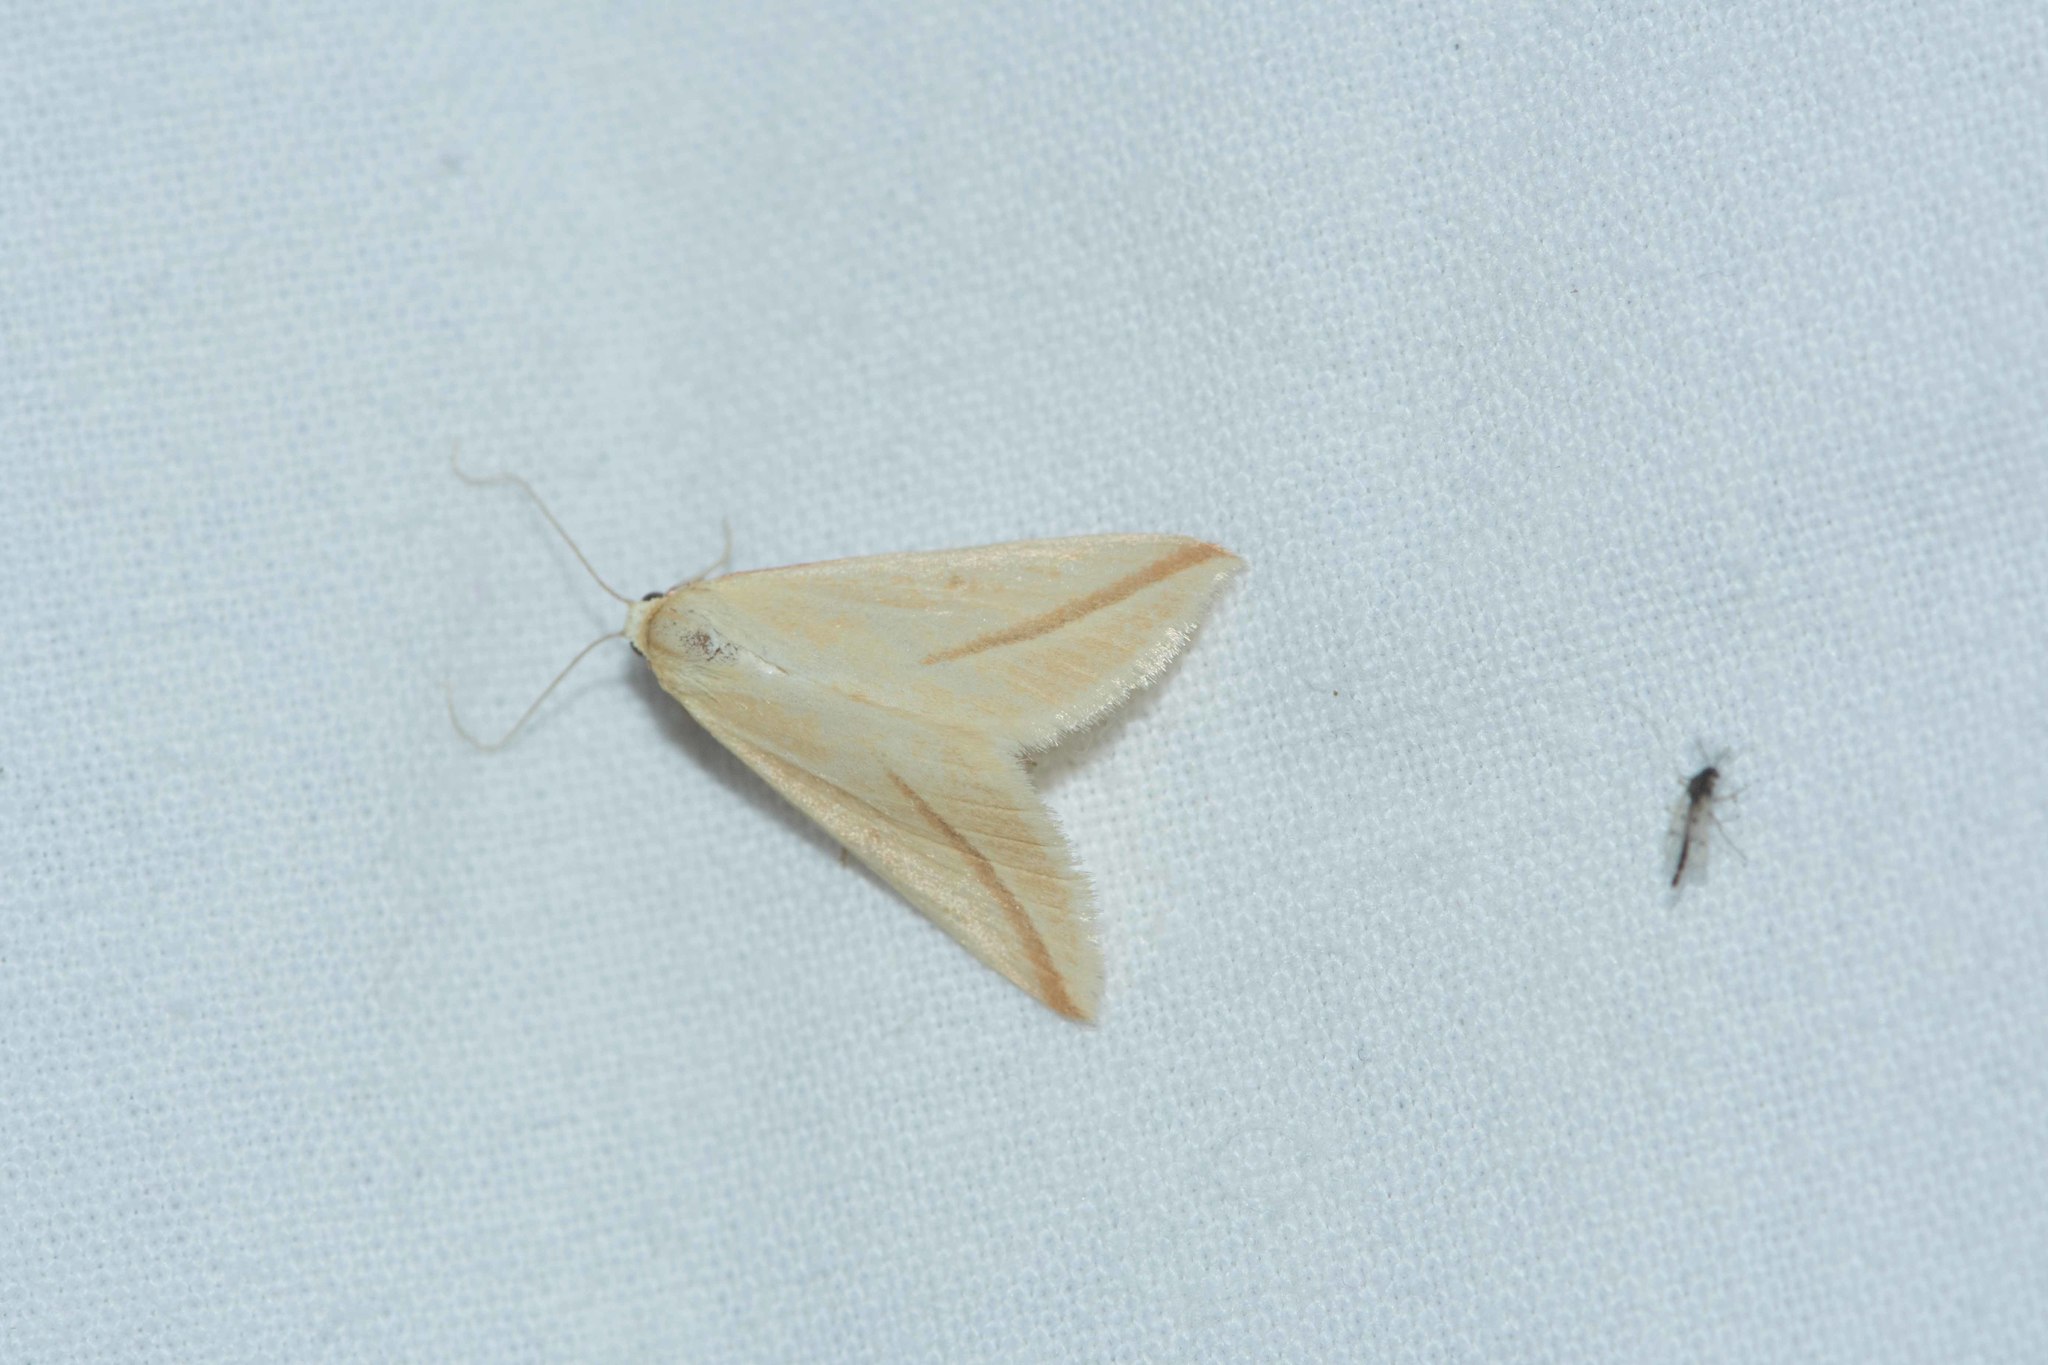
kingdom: Animalia
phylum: Arthropoda
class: Insecta
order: Lepidoptera
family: Geometridae
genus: Rhodometra
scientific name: Rhodometra sacraria
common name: Vestal
